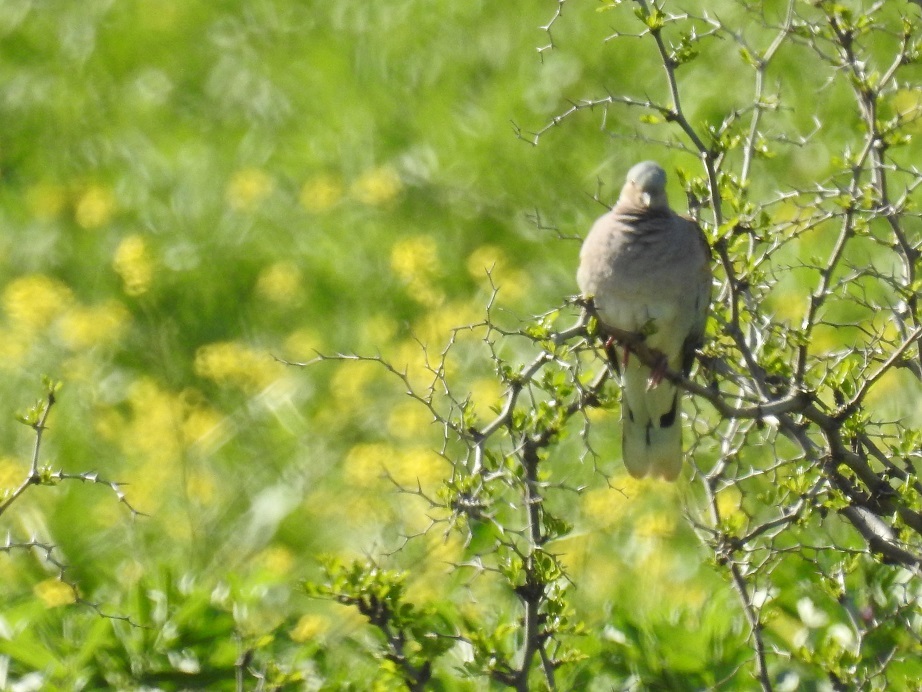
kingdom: Animalia
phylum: Chordata
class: Aves
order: Columbiformes
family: Columbidae
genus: Streptopelia
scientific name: Streptopelia turtur
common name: European turtle dove
